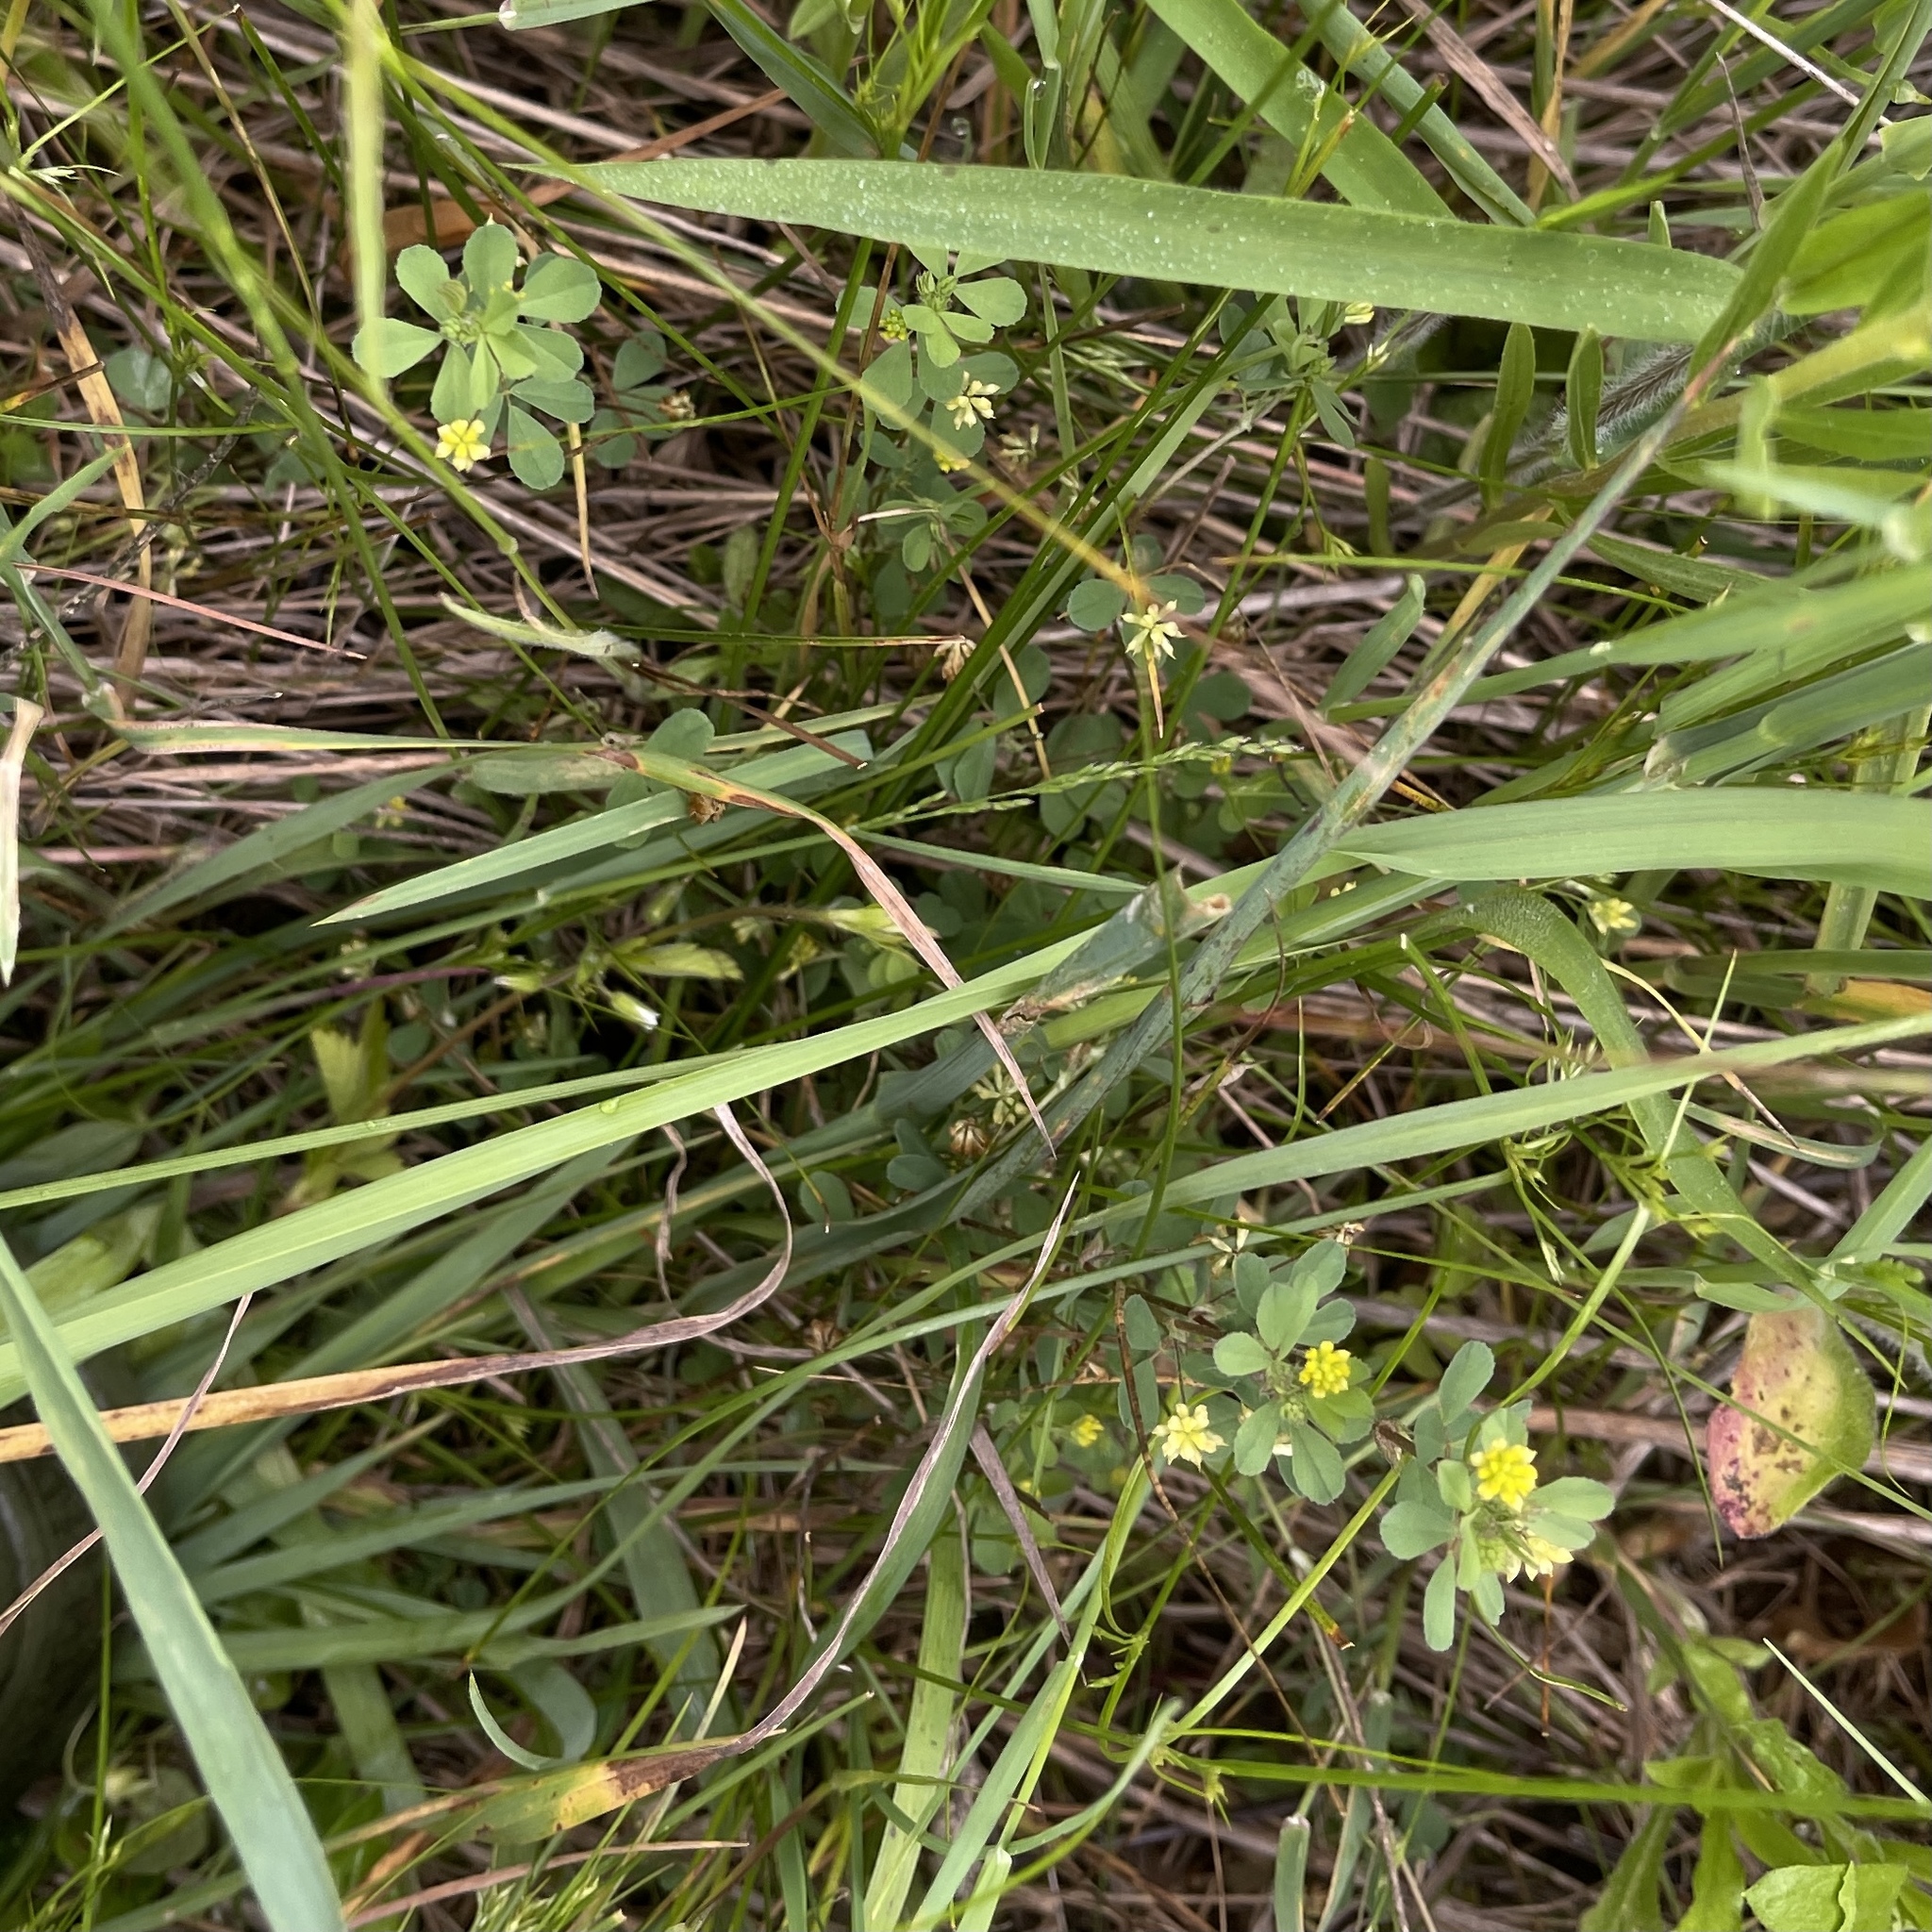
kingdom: Plantae
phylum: Tracheophyta
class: Magnoliopsida
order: Fabales
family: Fabaceae
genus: Trifolium
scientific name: Trifolium dubium
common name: Suckling clover
